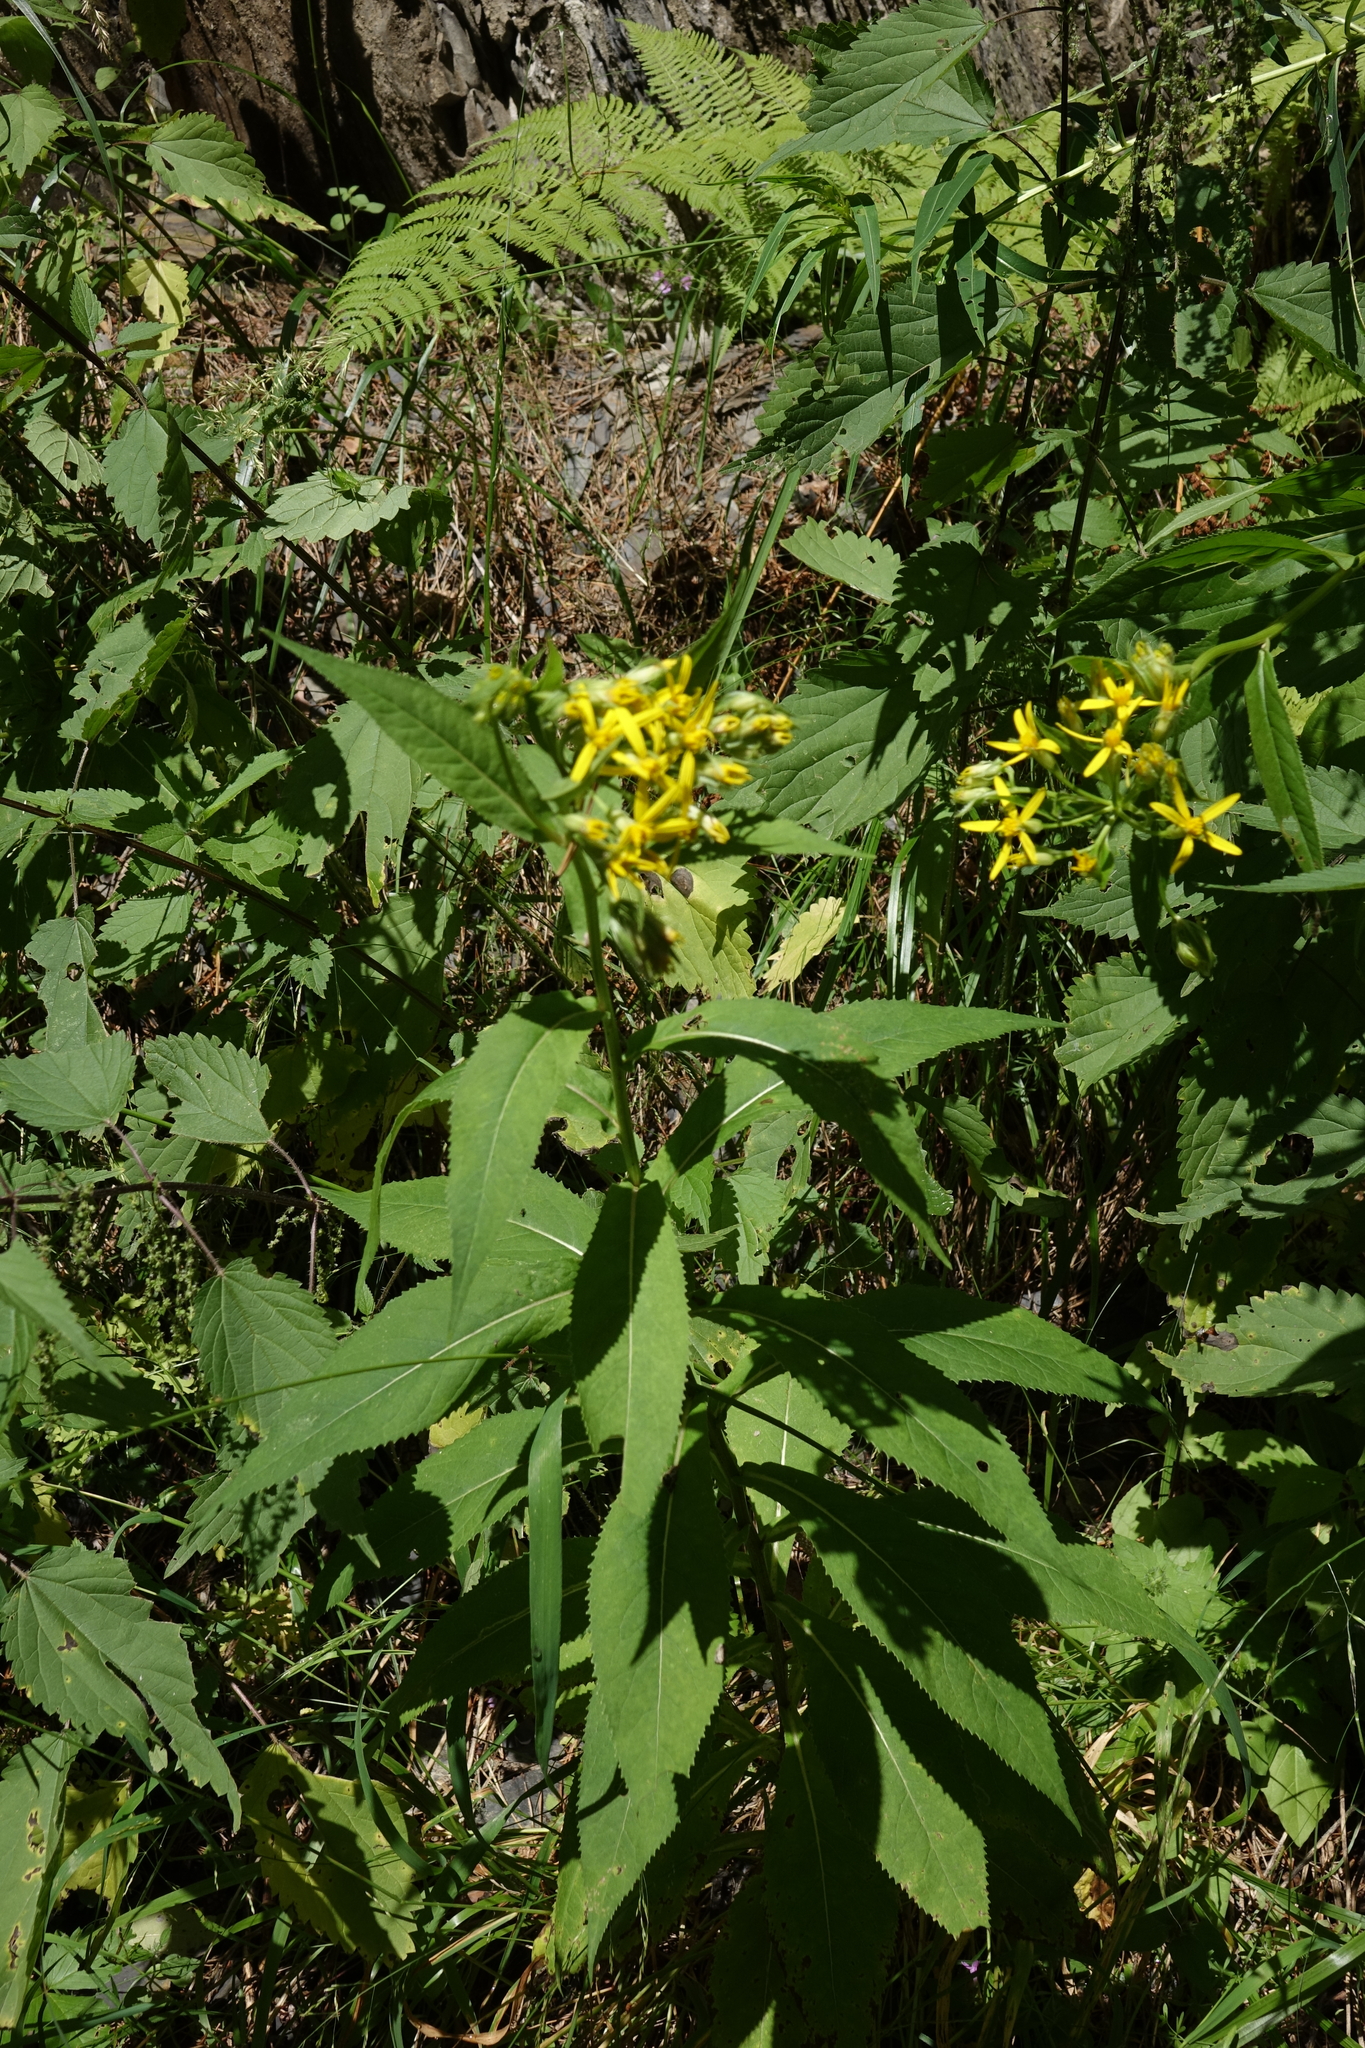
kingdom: Plantae
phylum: Tracheophyta
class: Magnoliopsida
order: Asterales
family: Asteraceae
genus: Senecio
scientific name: Senecio propinquus
